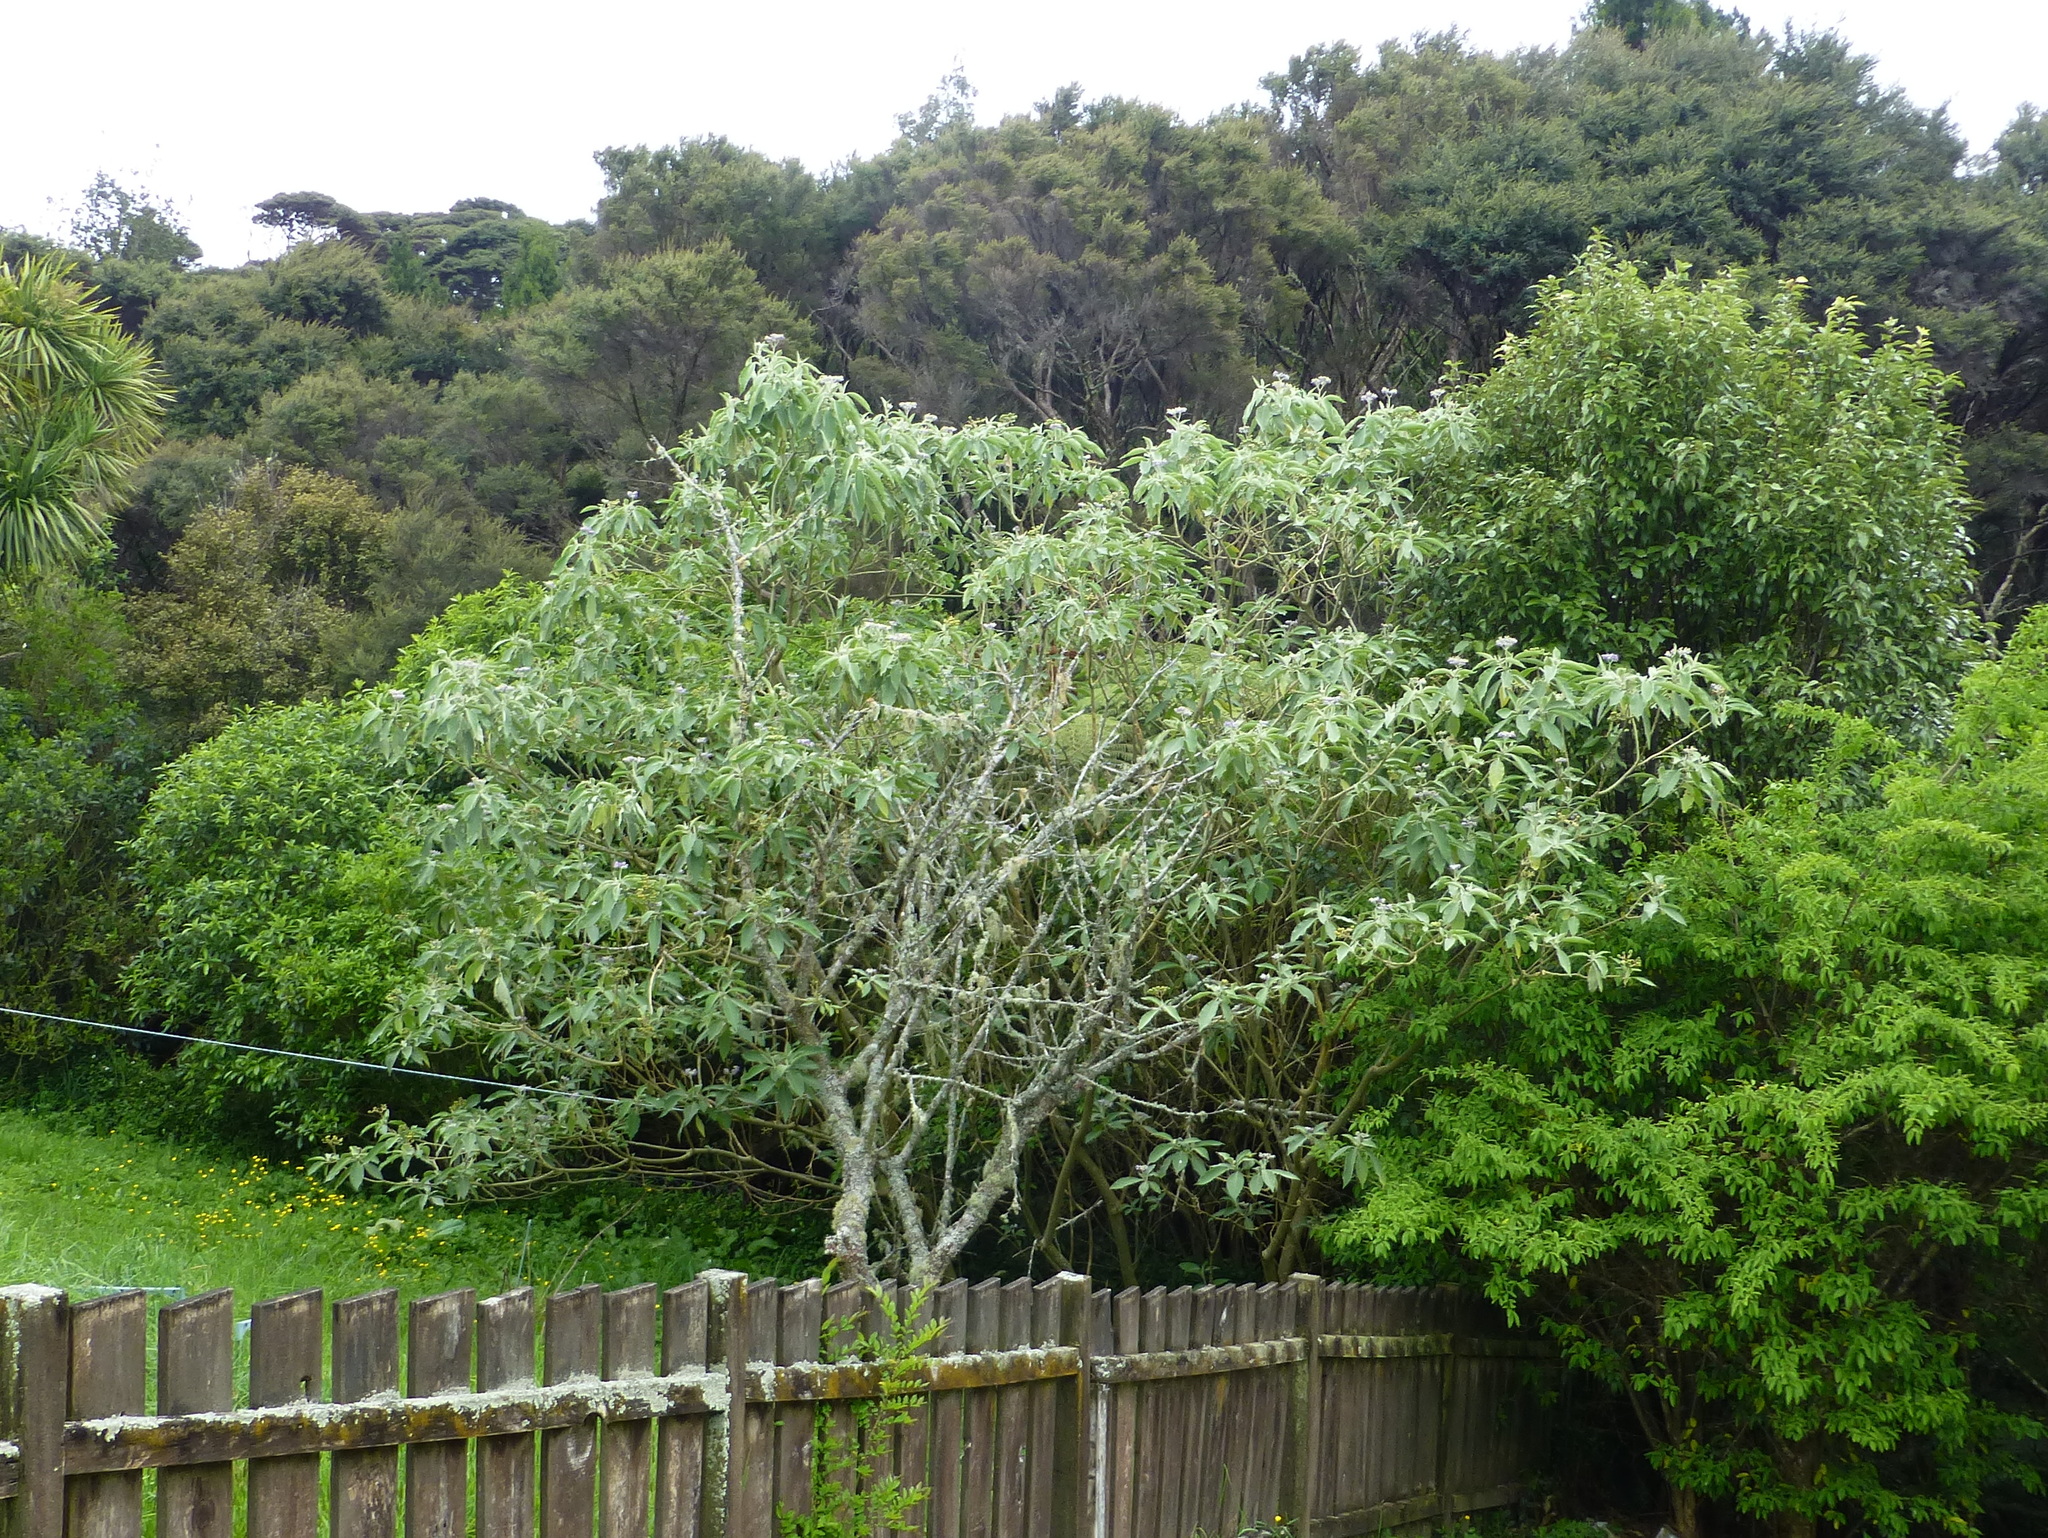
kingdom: Plantae
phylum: Tracheophyta
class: Magnoliopsida
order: Solanales
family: Solanaceae
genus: Solanum
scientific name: Solanum mauritianum
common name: Earleaf nightshade
